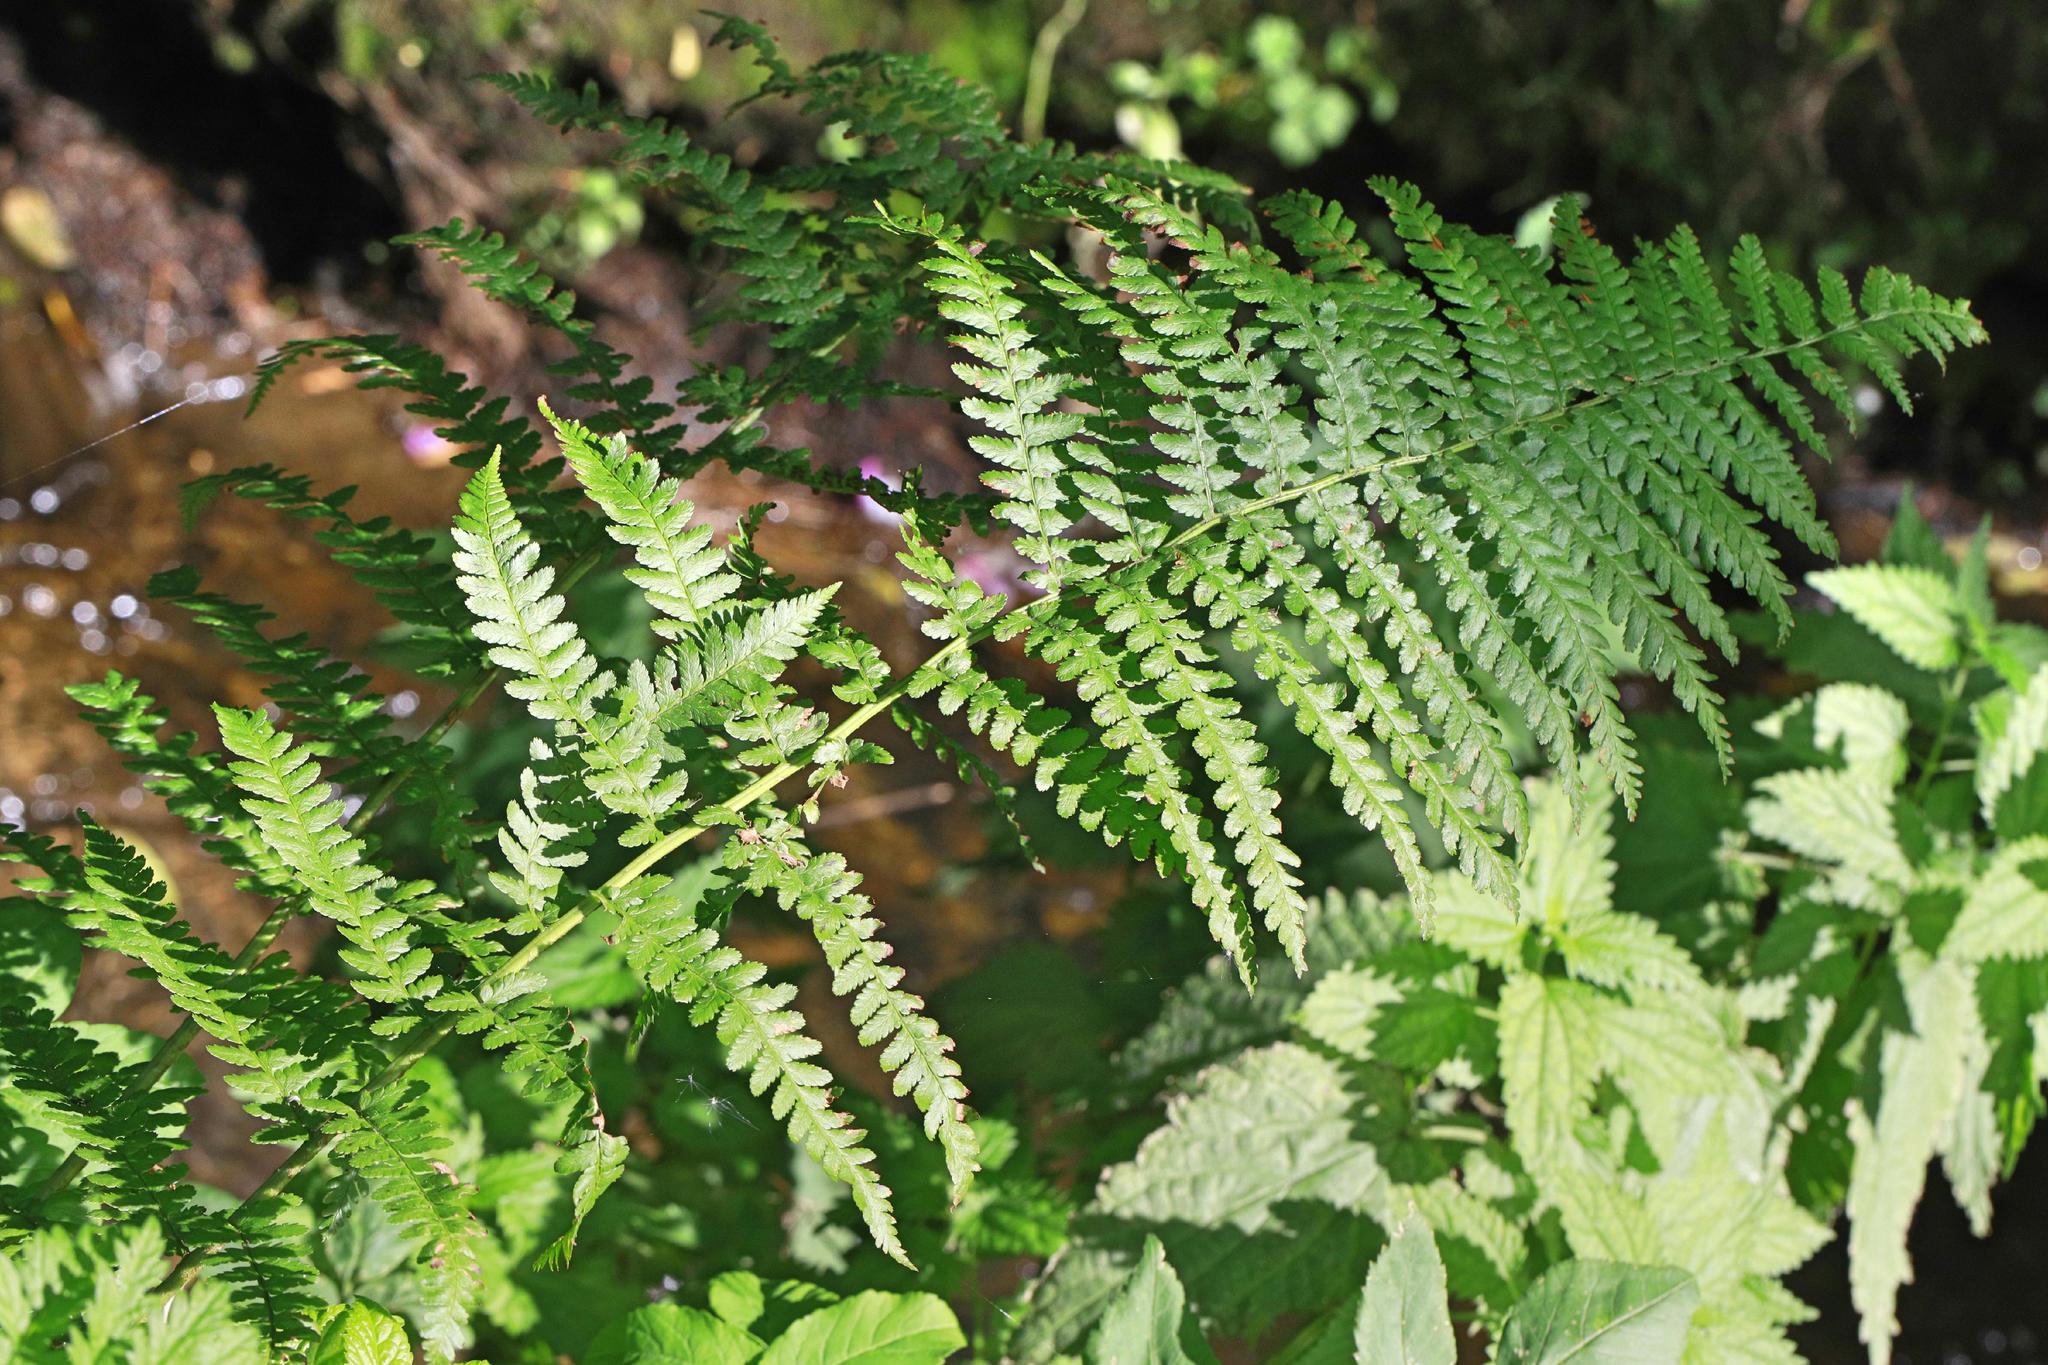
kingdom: Plantae
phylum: Tracheophyta
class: Polypodiopsida
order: Polypodiales
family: Dryopteridaceae
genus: Dryopteris
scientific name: Dryopteris filix-mas
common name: Male fern
